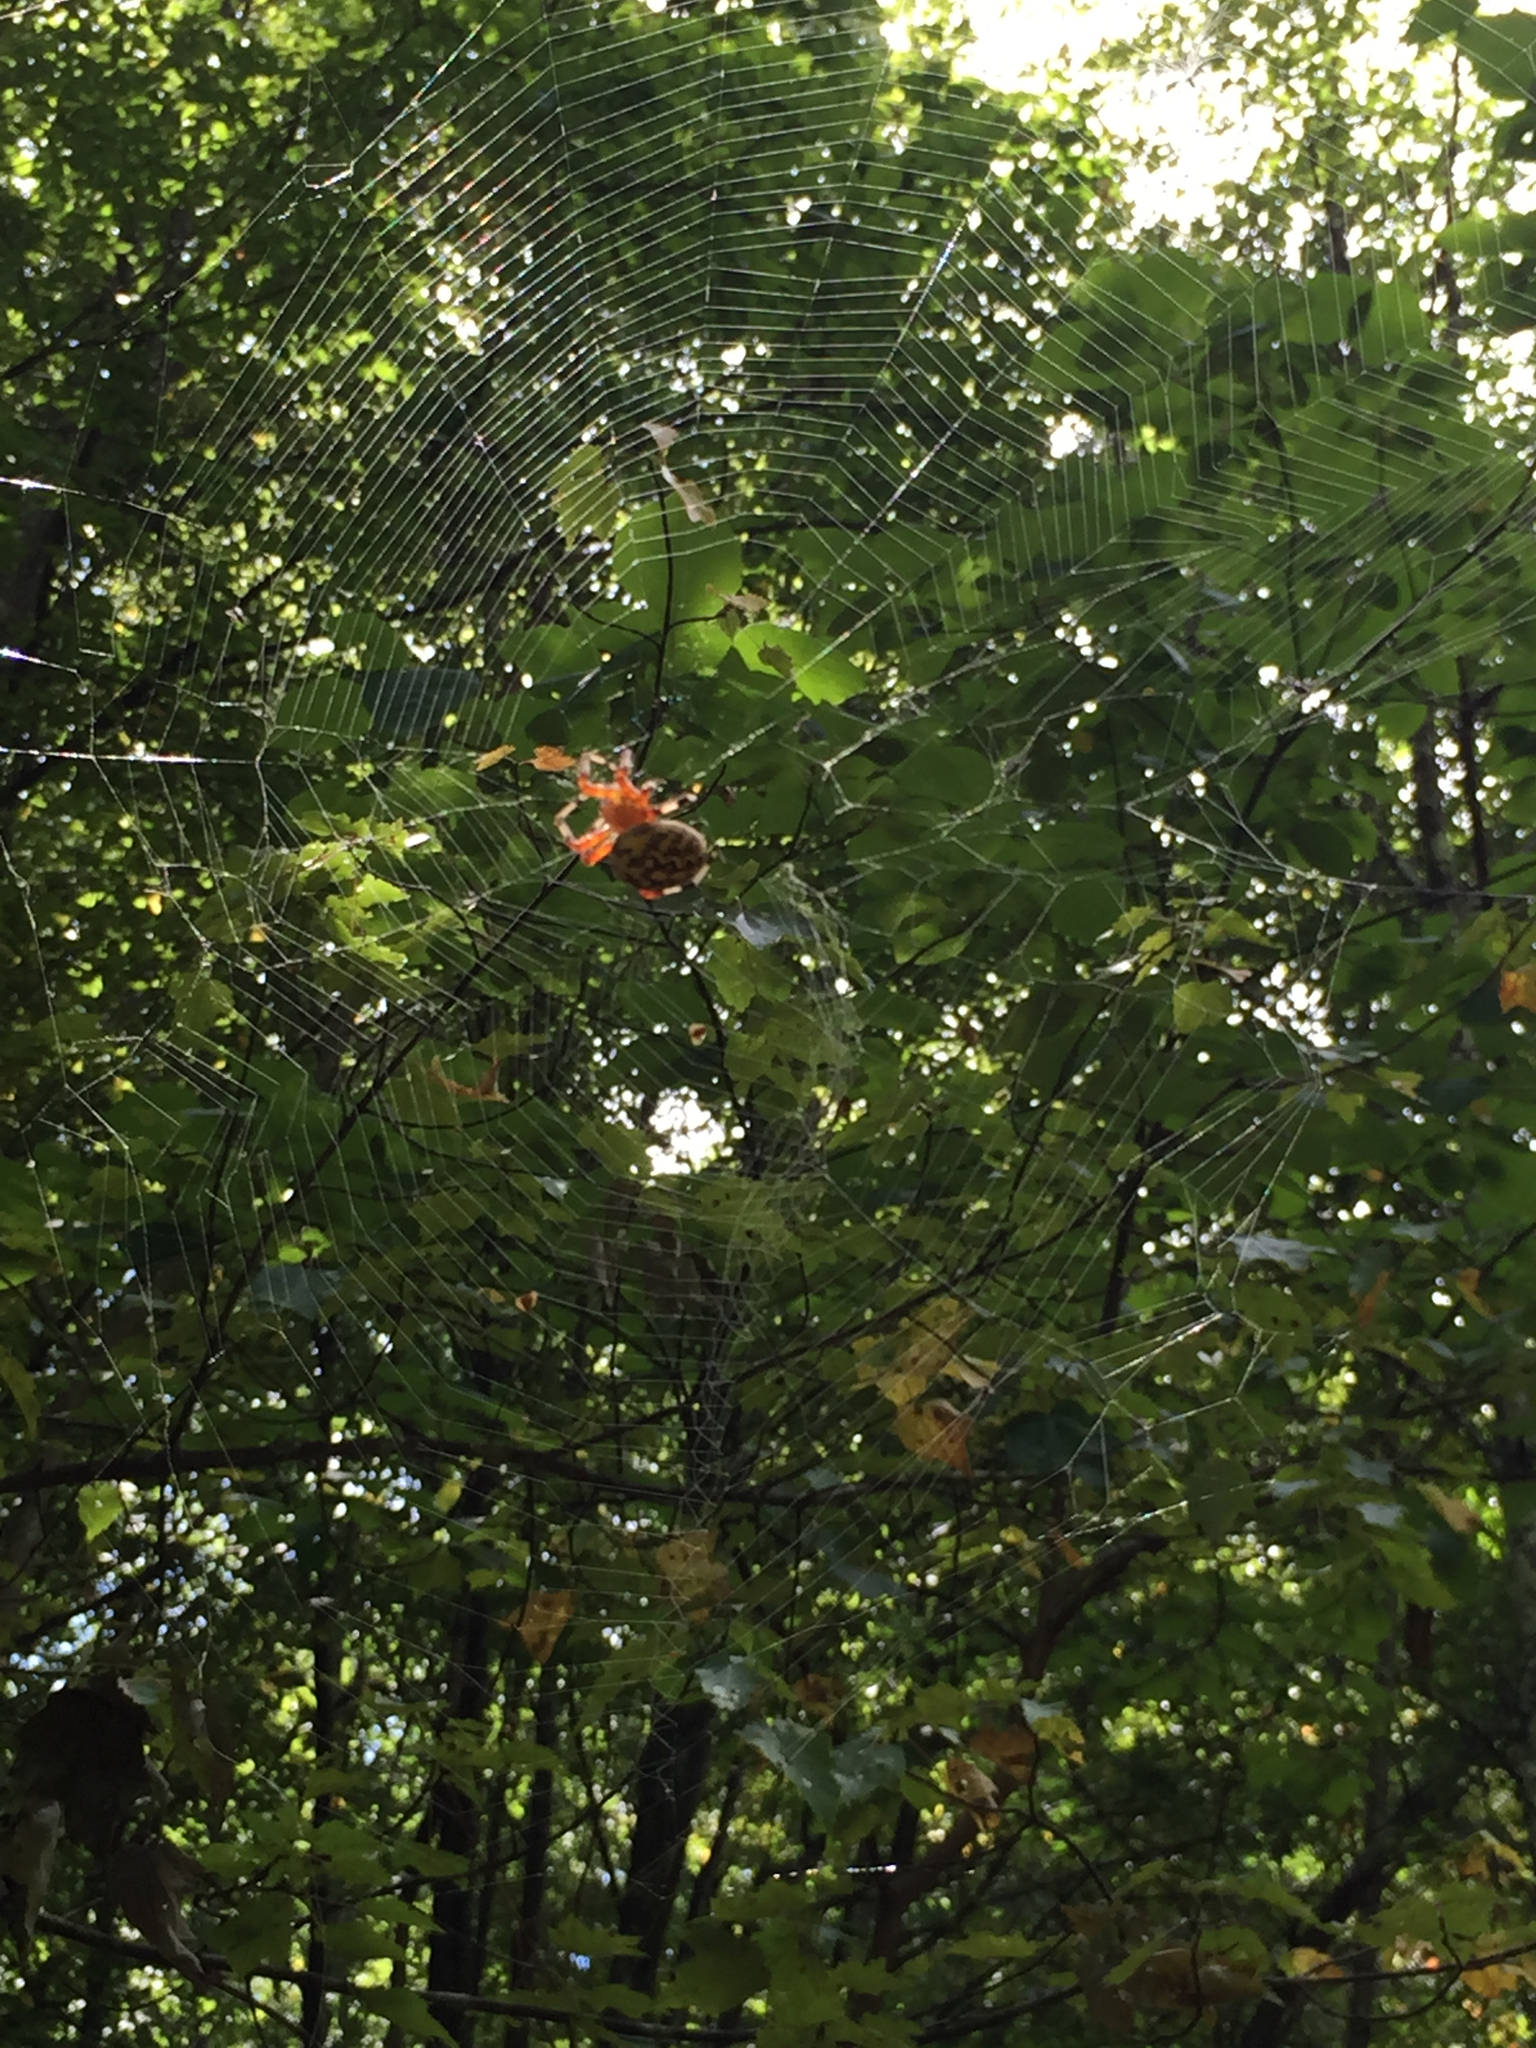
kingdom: Animalia
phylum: Arthropoda
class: Arachnida
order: Araneae
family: Araneidae
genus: Araneus
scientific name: Araneus marmoreus
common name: Marbled orbweaver
